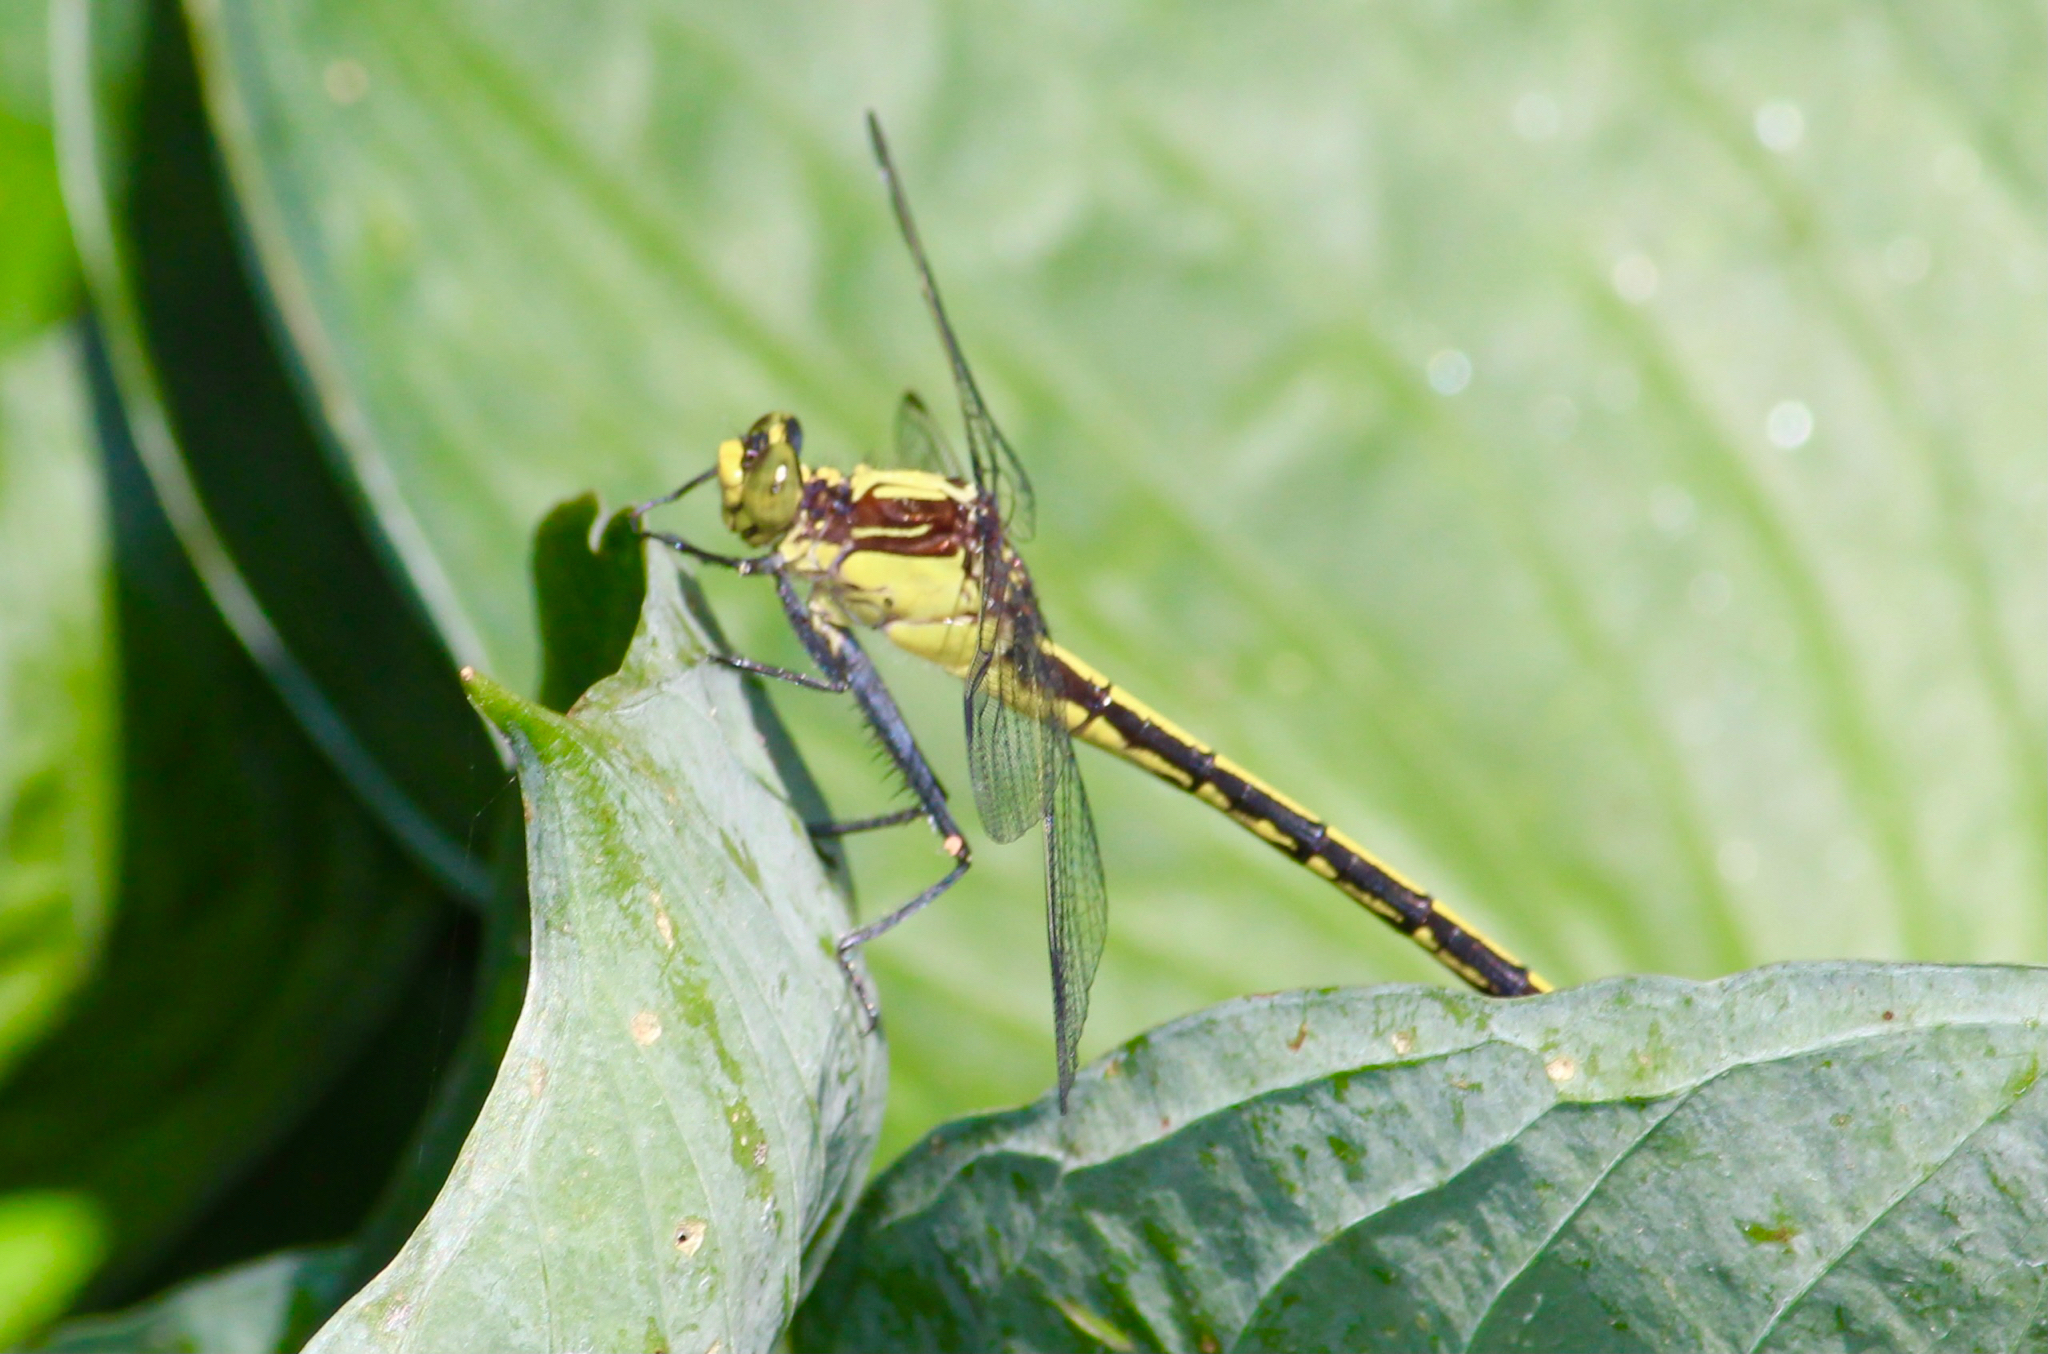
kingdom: Animalia
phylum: Arthropoda
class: Insecta
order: Odonata
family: Gomphidae
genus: Dromogomphus
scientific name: Dromogomphus spinosus
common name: Black-shouldered spinyleg
